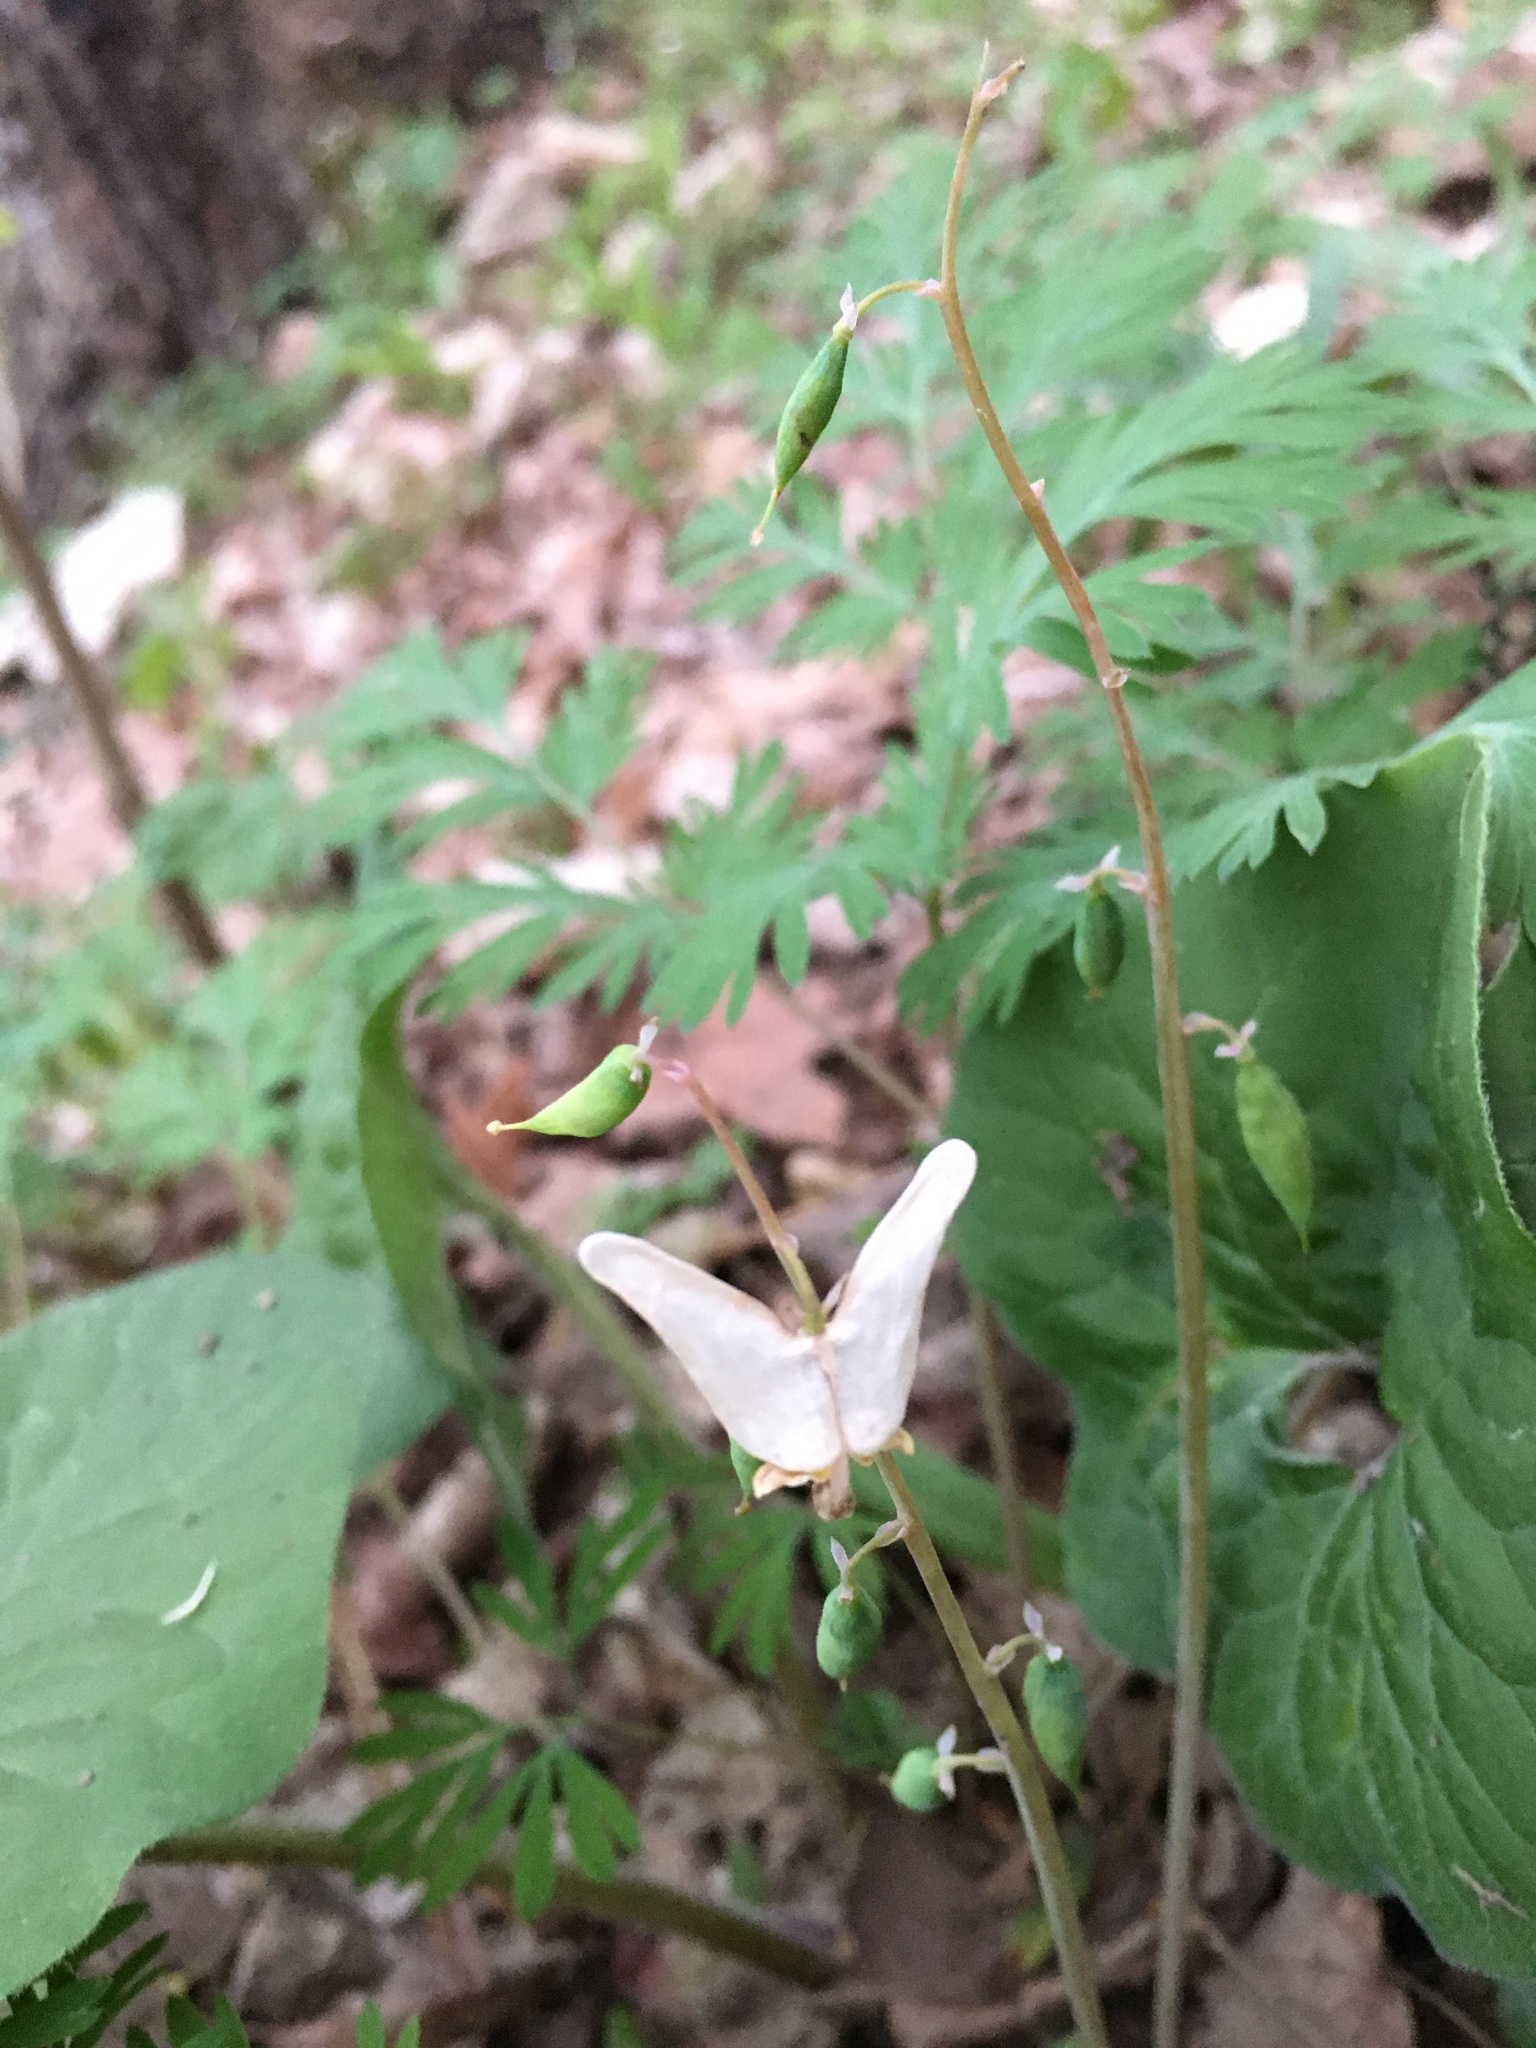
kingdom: Plantae
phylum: Tracheophyta
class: Magnoliopsida
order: Ranunculales
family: Papaveraceae
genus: Dicentra
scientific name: Dicentra cucullaria
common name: Dutchman's breeches
